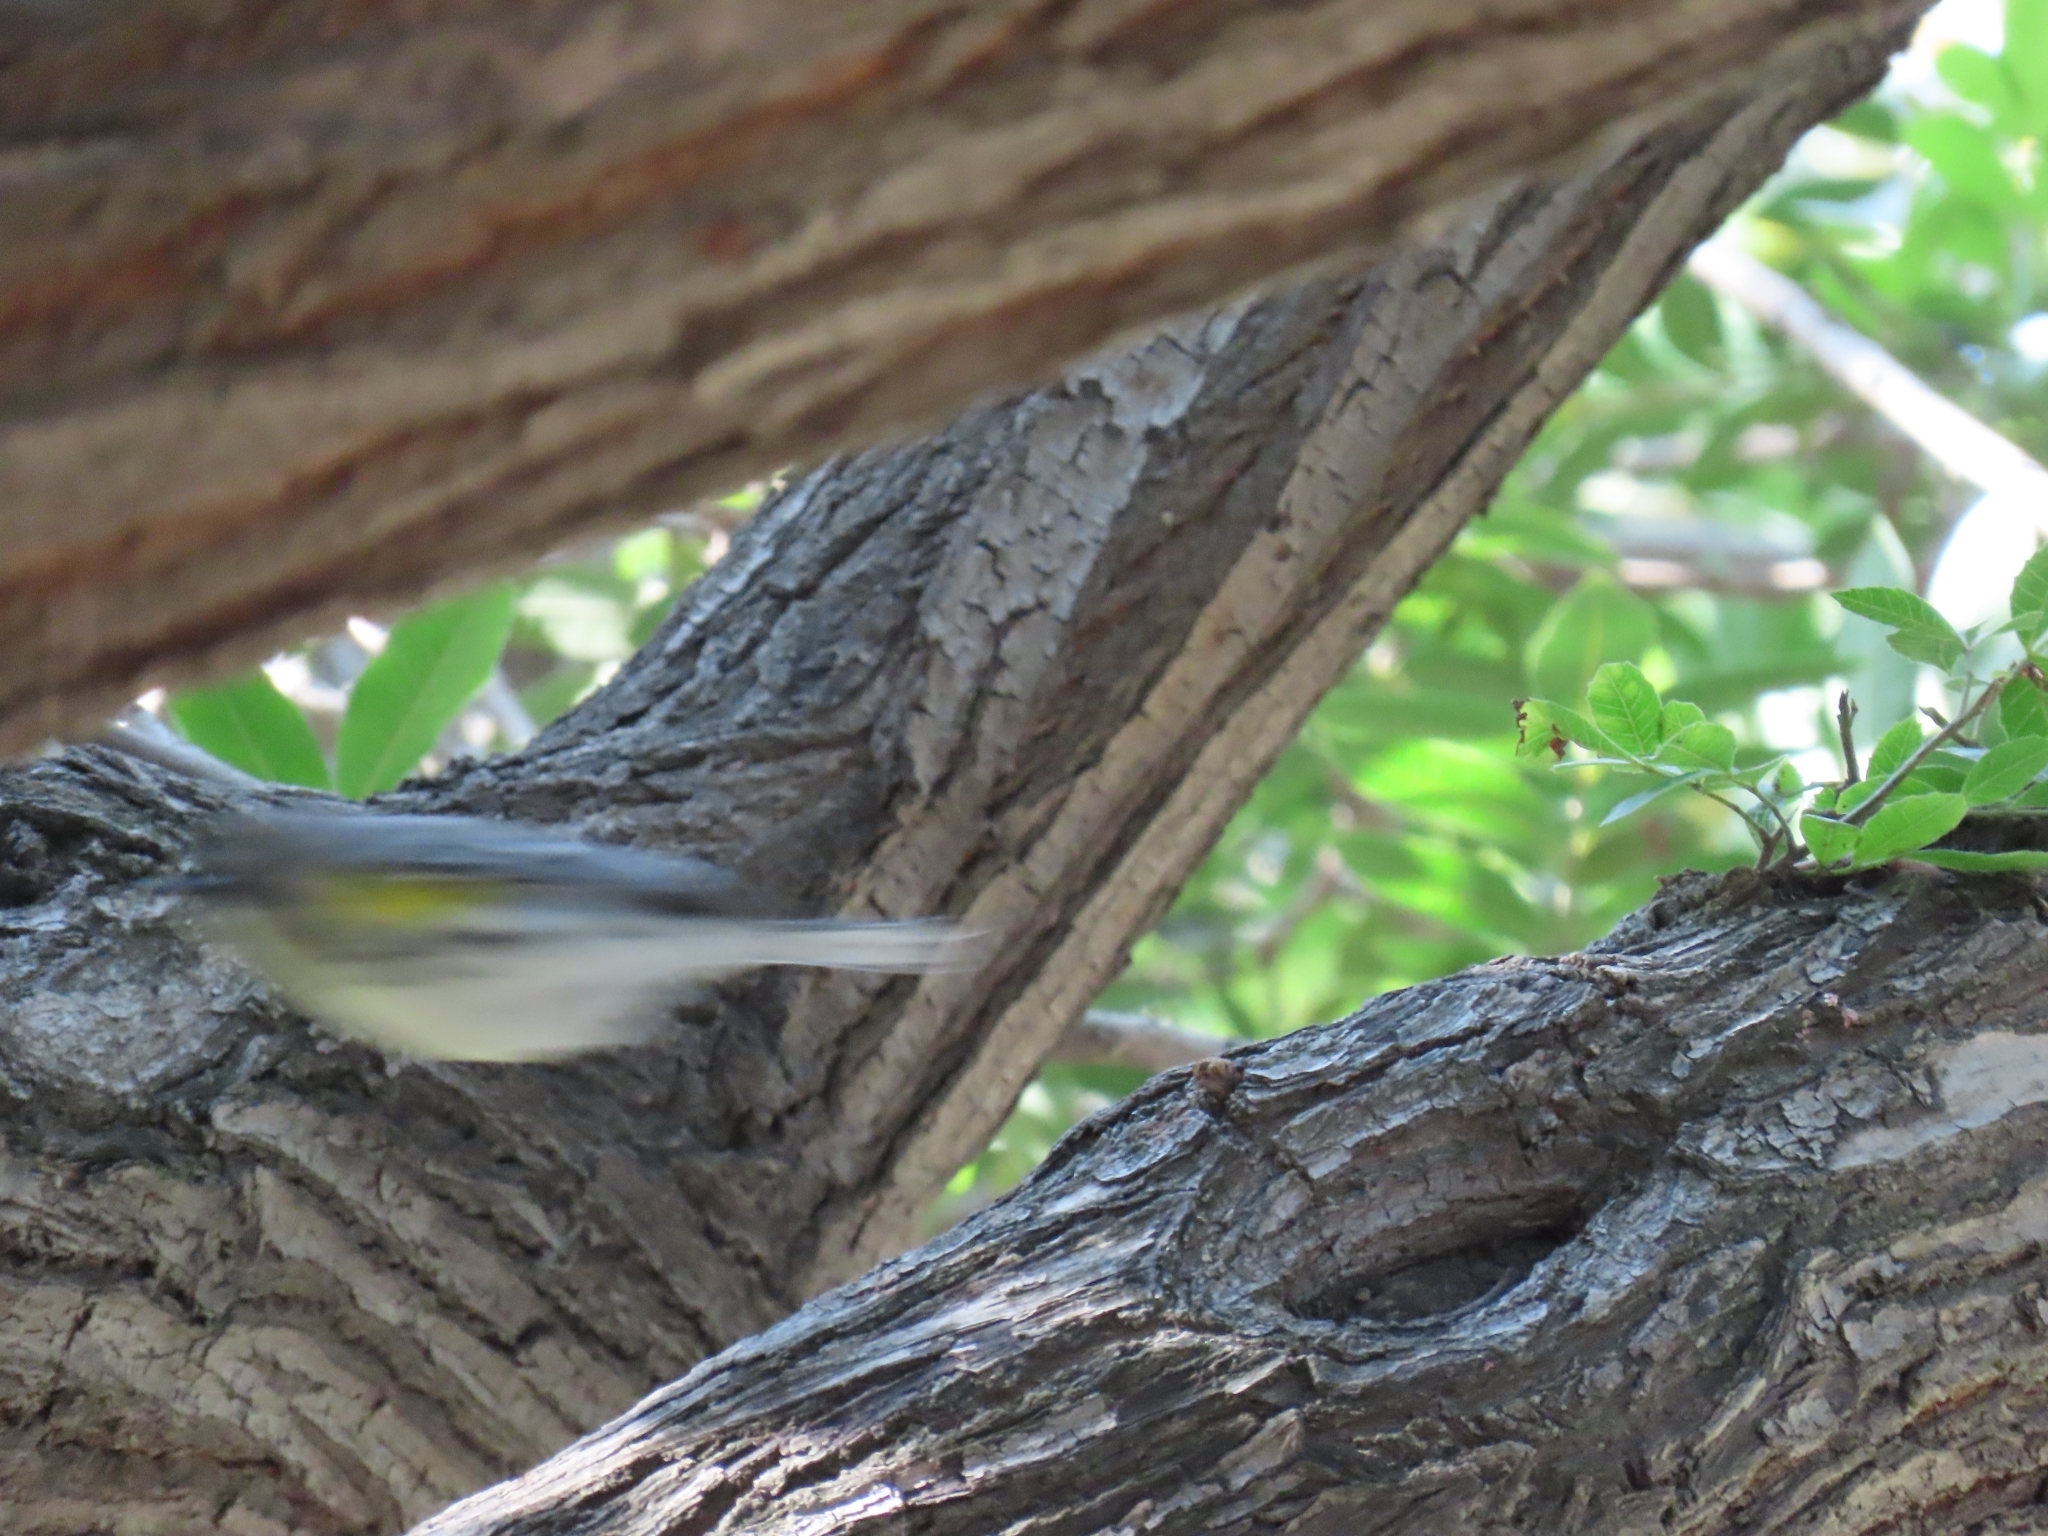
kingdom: Animalia
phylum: Chordata
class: Aves
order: Passeriformes
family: Parulidae
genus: Setophaga
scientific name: Setophaga coronata
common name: Myrtle warbler
